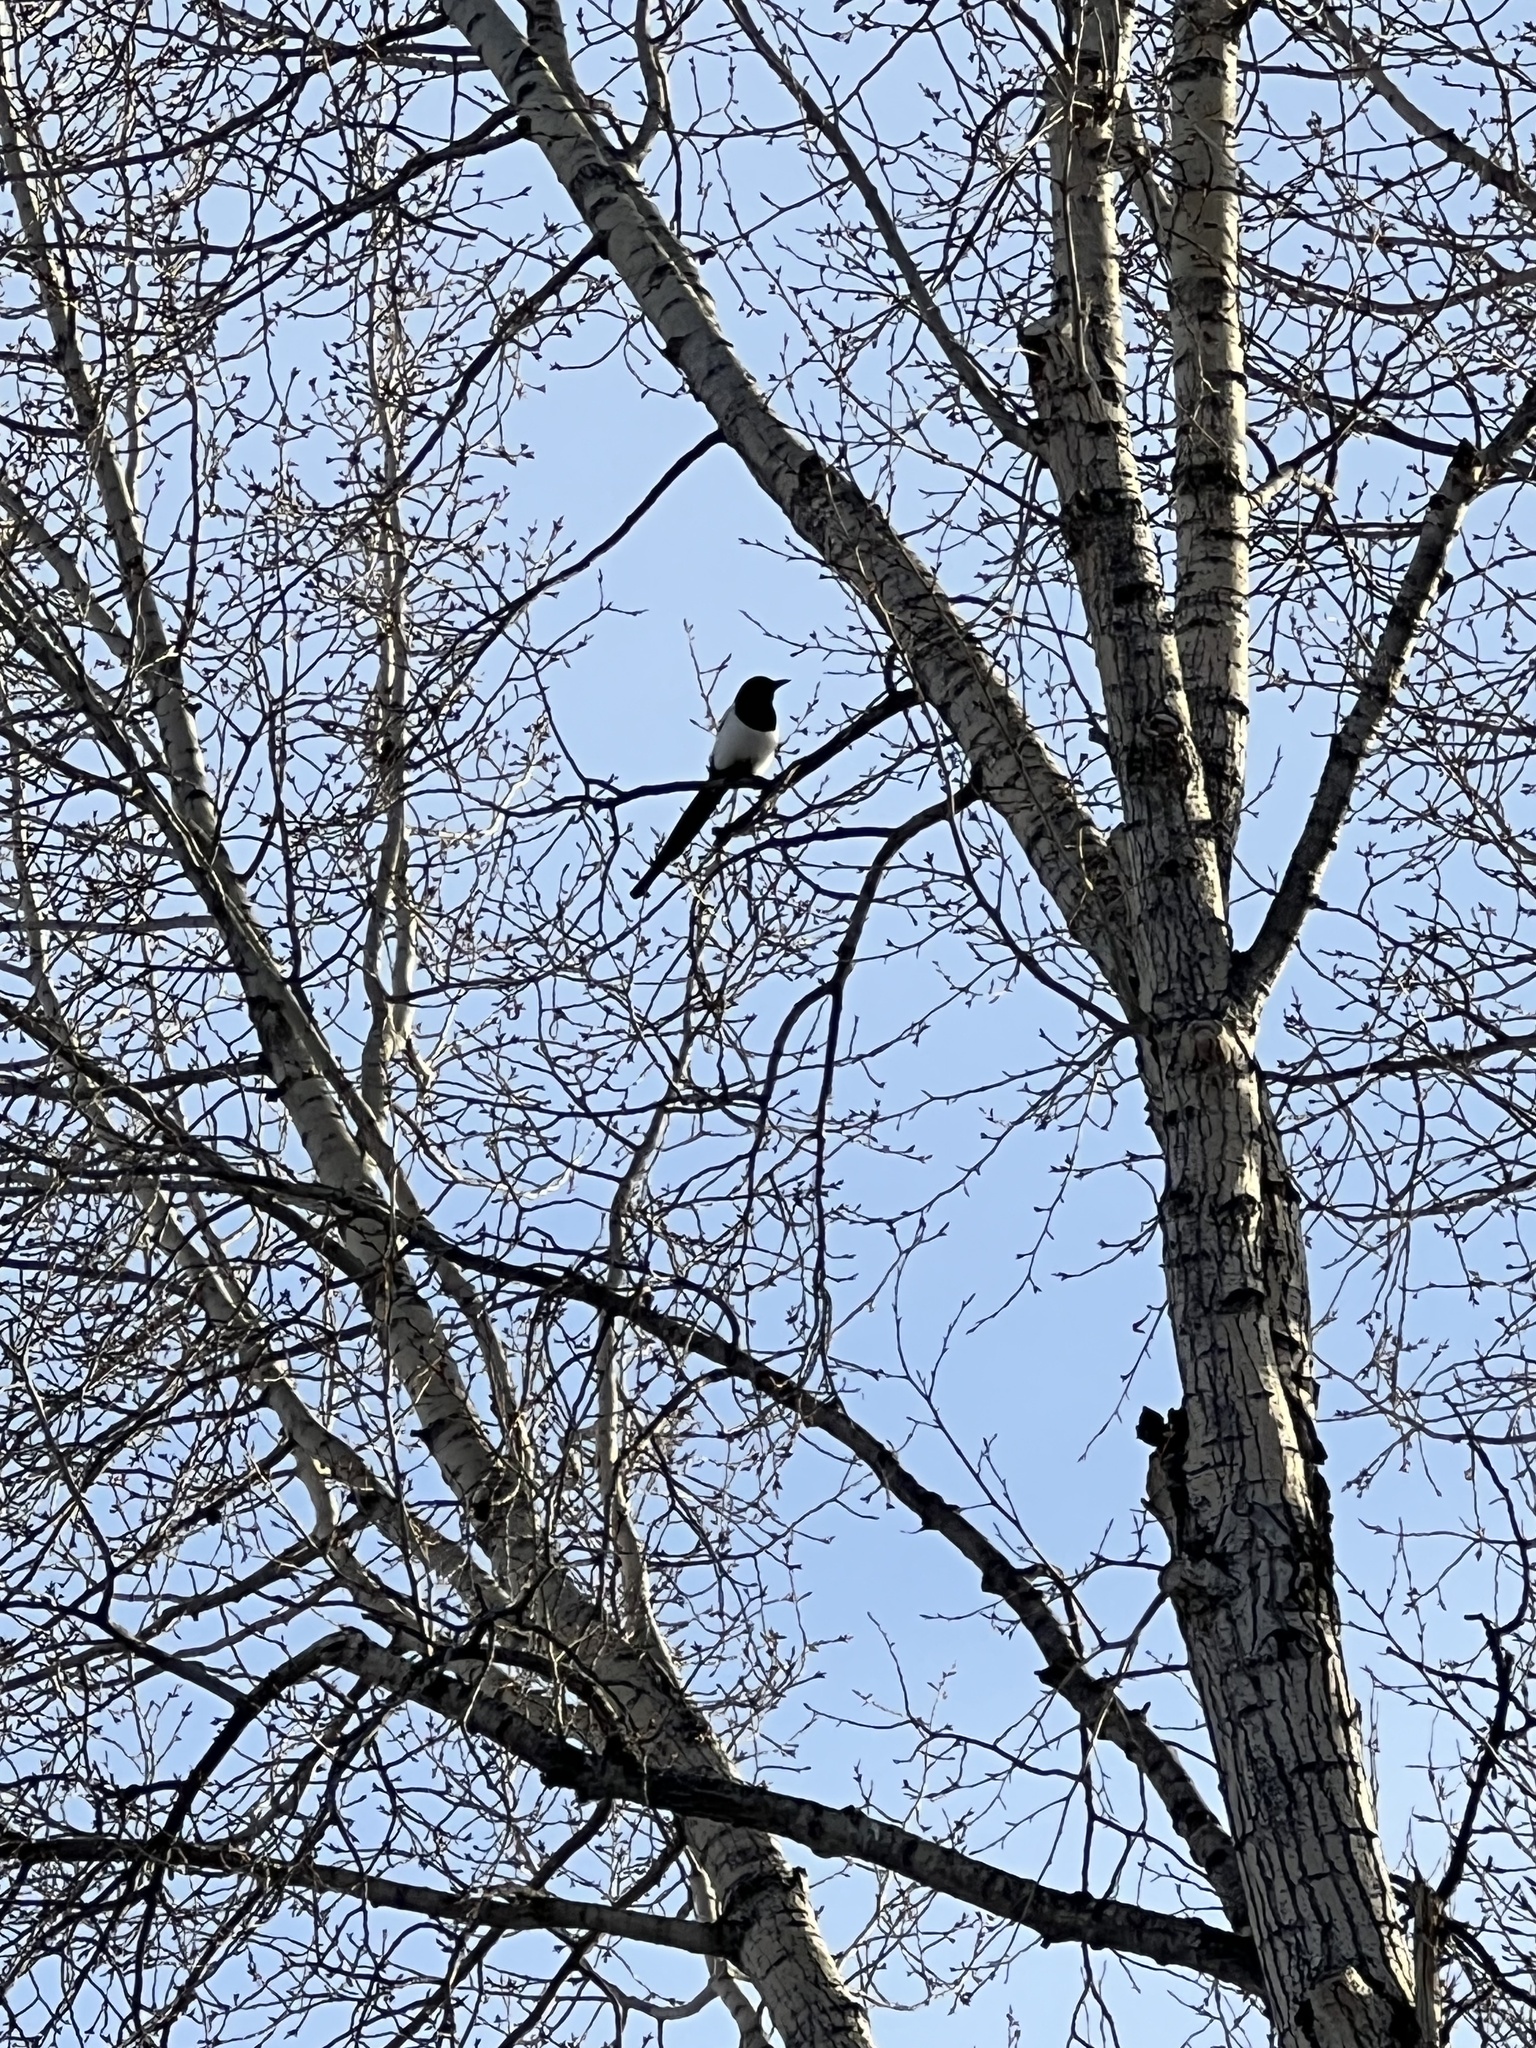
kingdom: Animalia
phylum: Chordata
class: Aves
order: Passeriformes
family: Corvidae
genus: Pica
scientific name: Pica hudsonia
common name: Black-billed magpie
